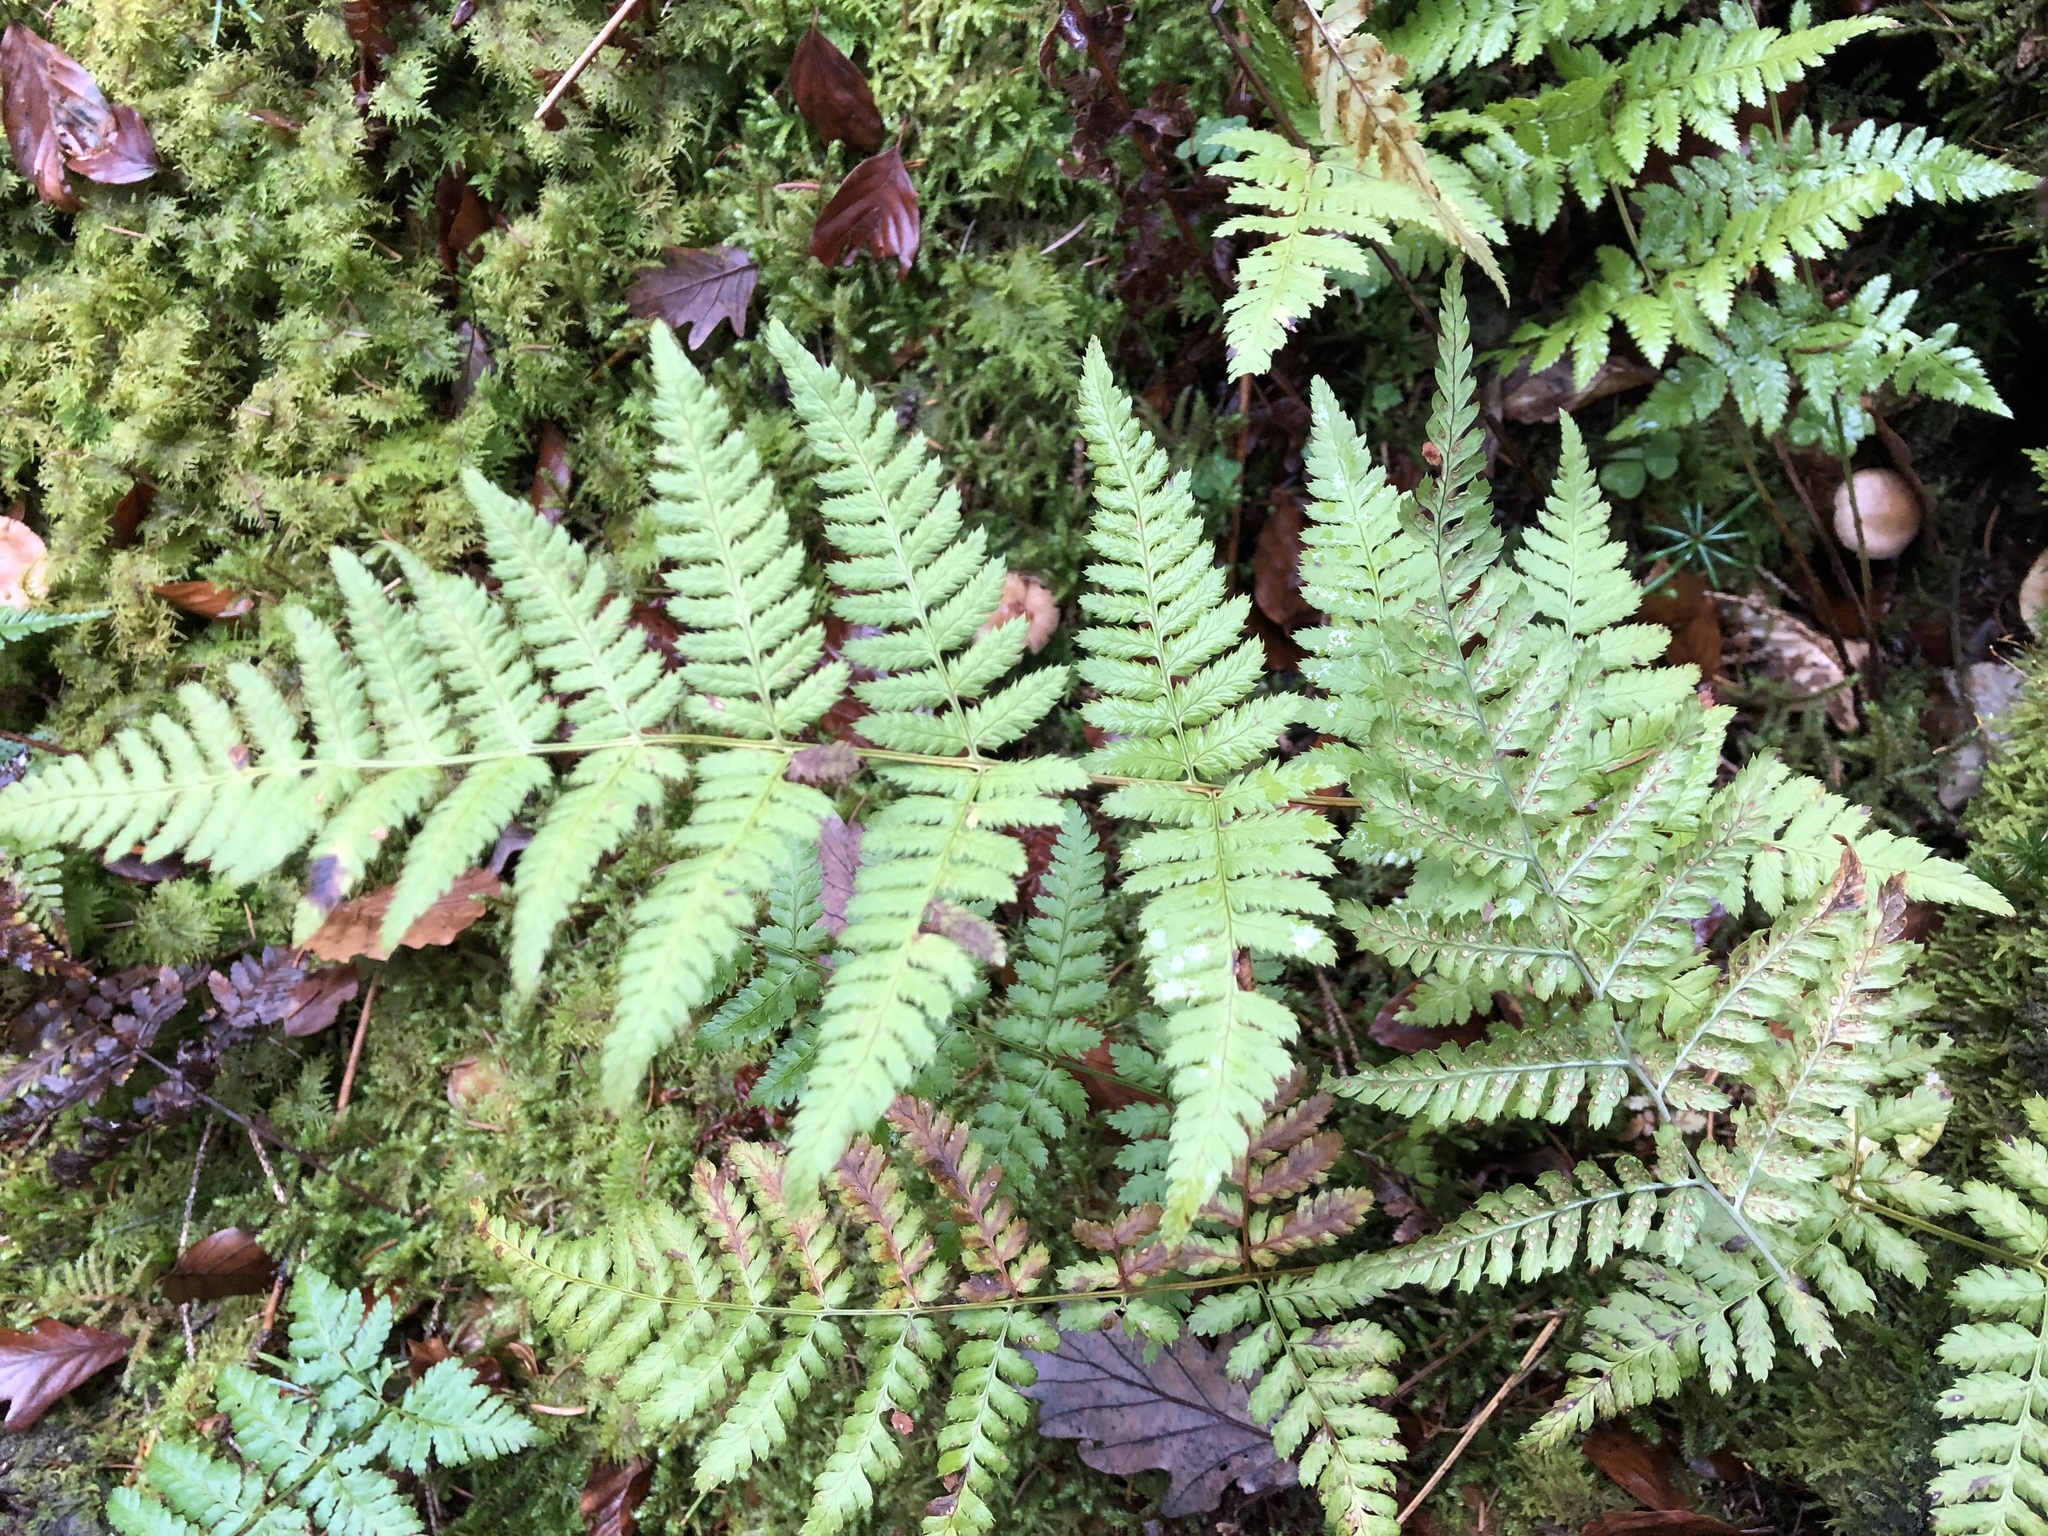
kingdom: Plantae
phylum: Tracheophyta
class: Polypodiopsida
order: Polypodiales
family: Dryopteridaceae
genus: Dryopteris
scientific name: Dryopteris carthusiana
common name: Narrow buckler-fern
